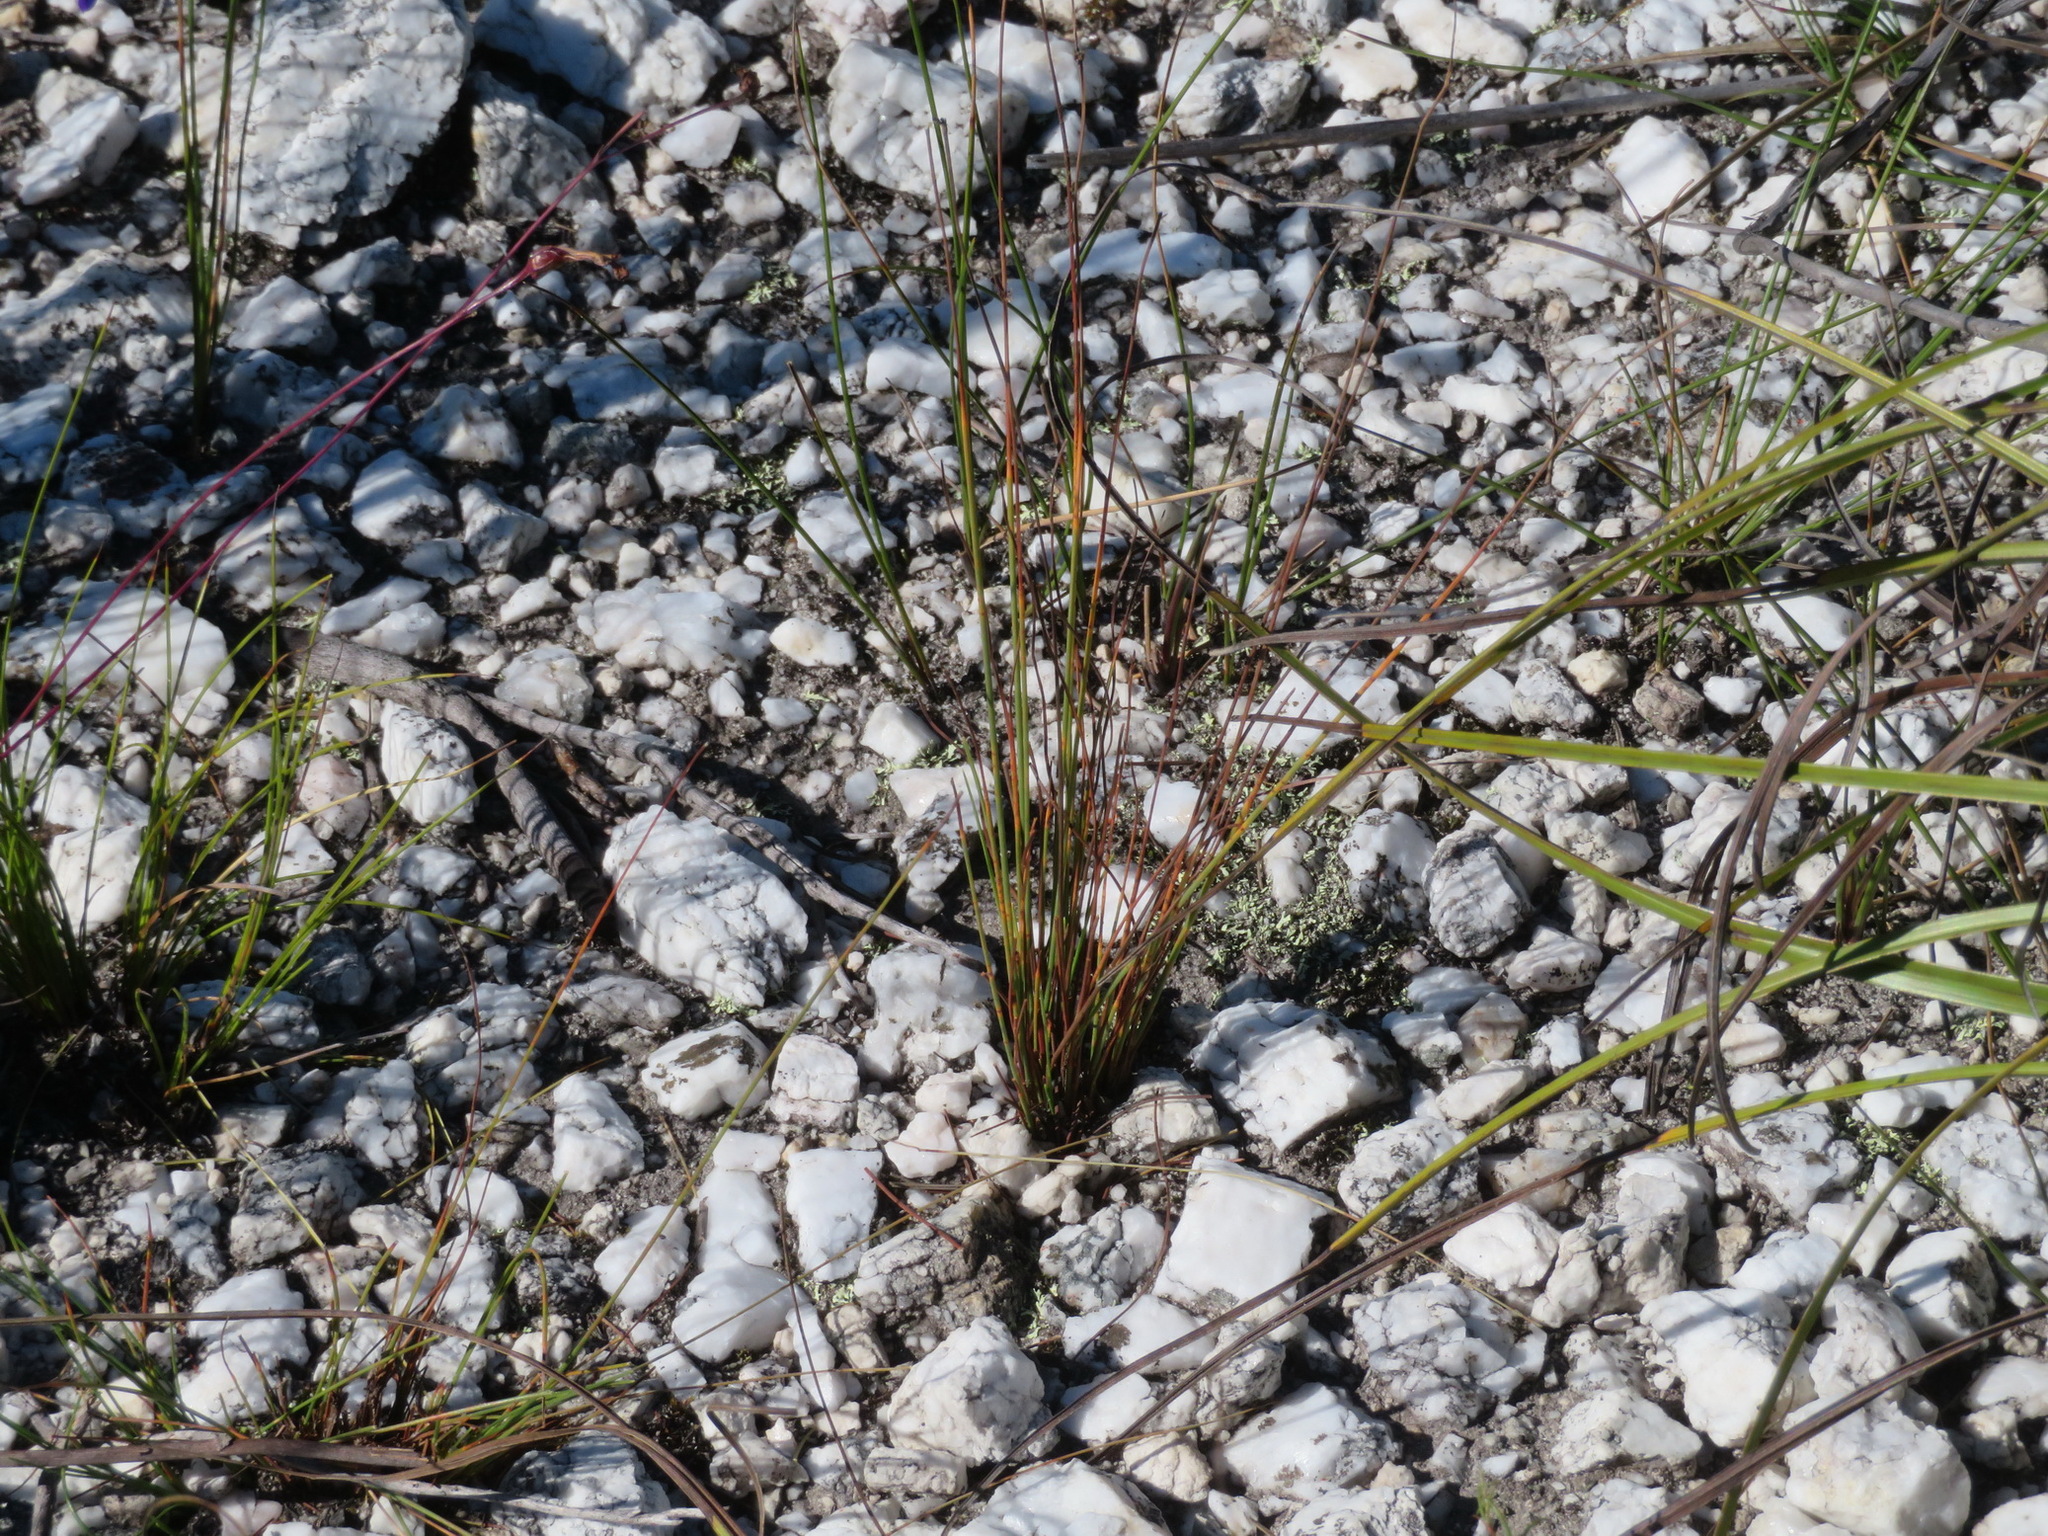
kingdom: Plantae
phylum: Tracheophyta
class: Liliopsida
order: Asparagales
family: Asparagaceae
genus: Drimia
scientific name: Drimia media
